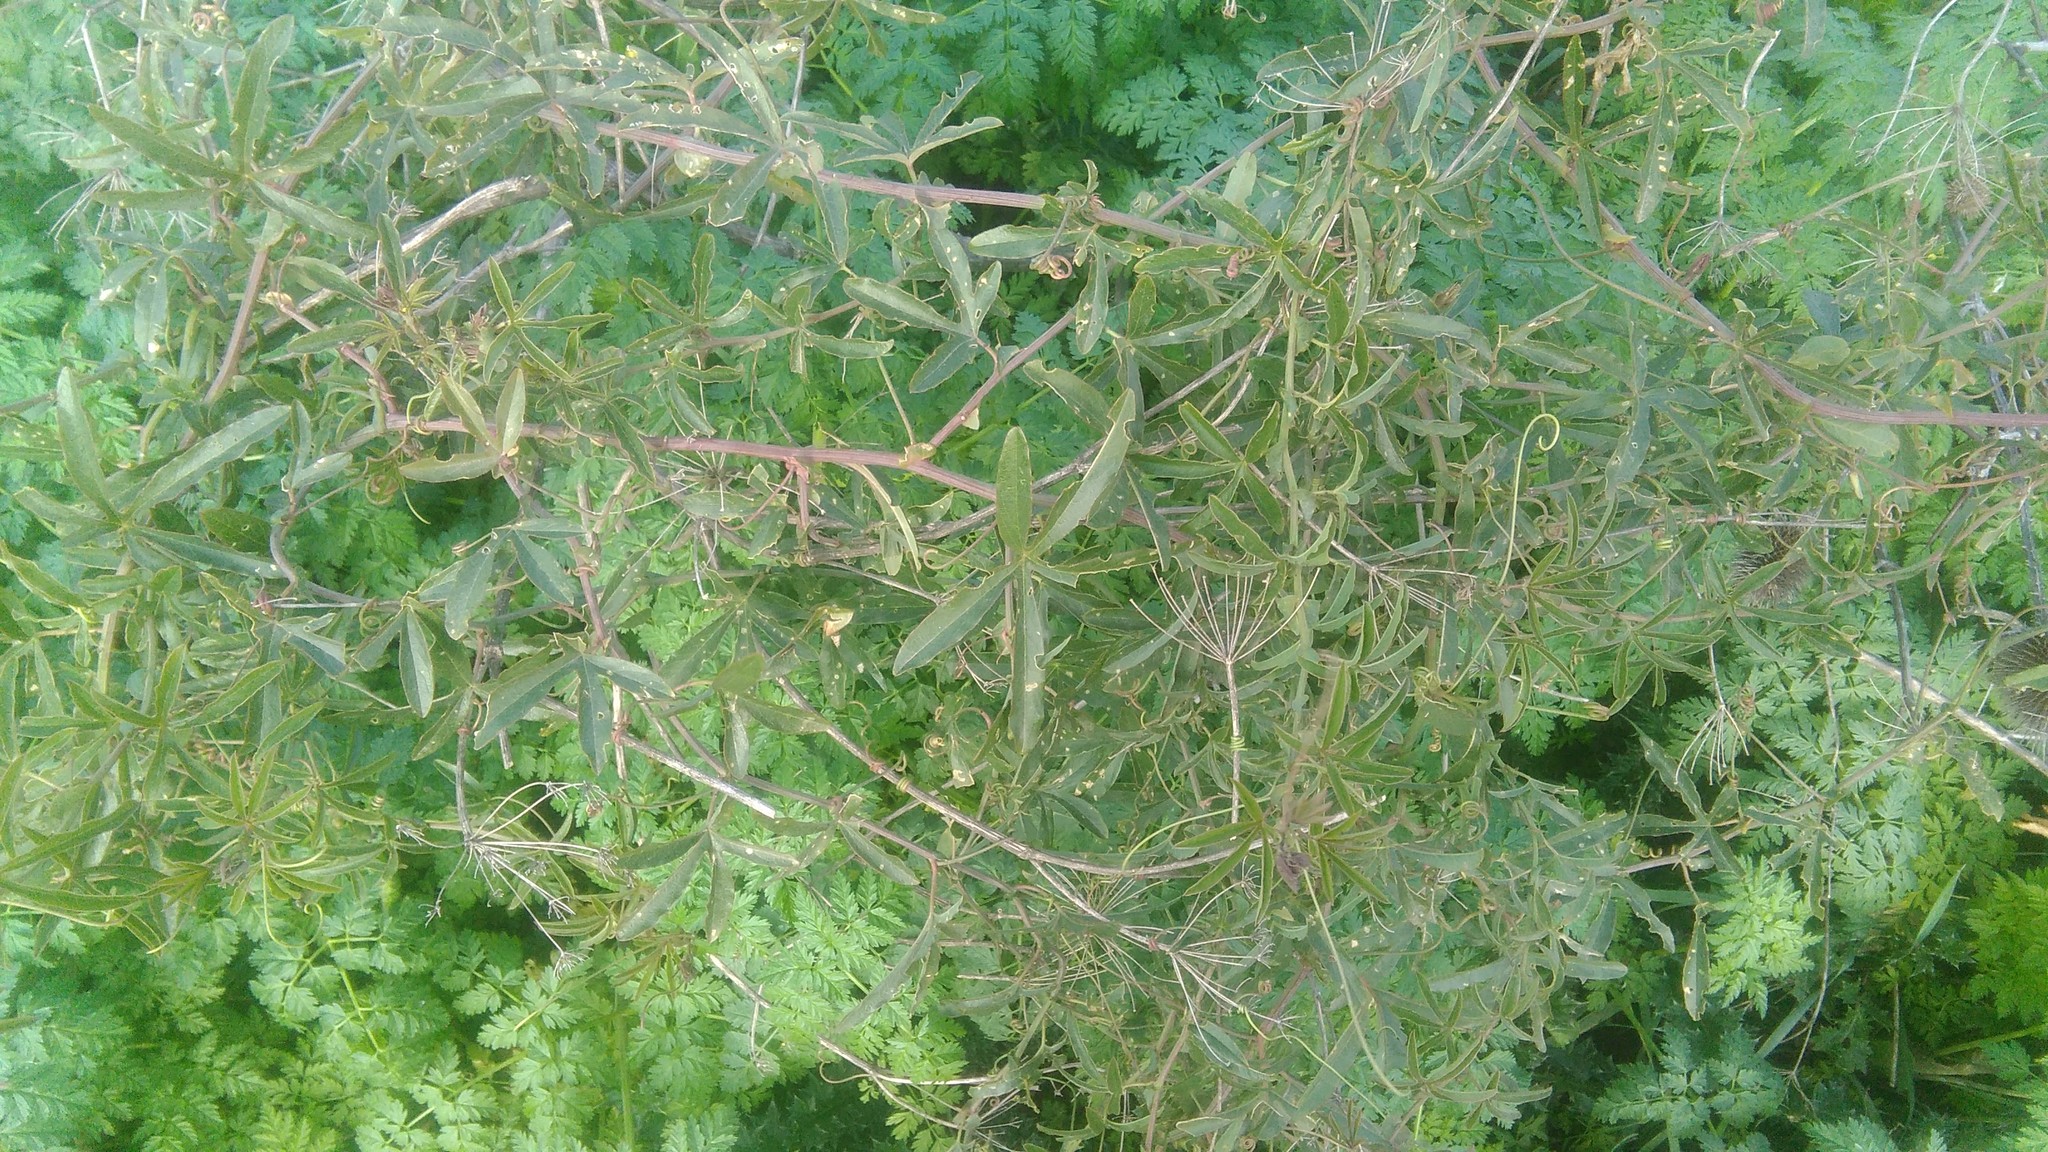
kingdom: Plantae
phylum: Tracheophyta
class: Magnoliopsida
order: Malpighiales
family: Passifloraceae
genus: Passiflora
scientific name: Passiflora caerulea
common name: Blue passionflower
